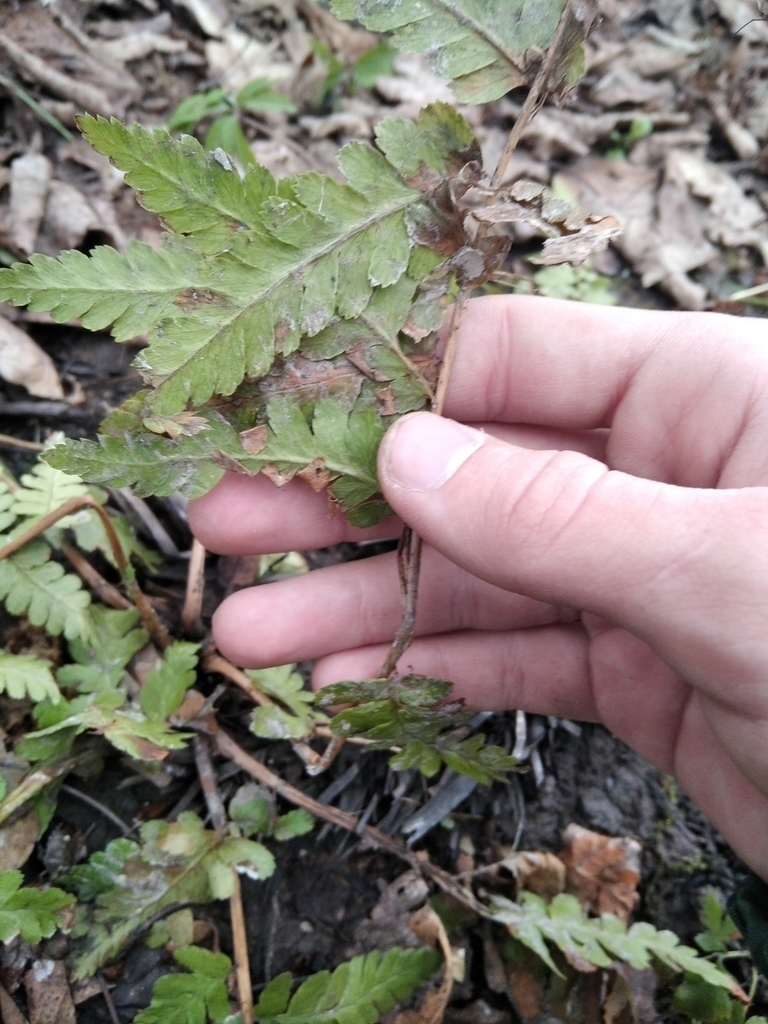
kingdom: Plantae
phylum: Tracheophyta
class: Polypodiopsida
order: Polypodiales
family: Dryopteridaceae
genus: Dryopteris
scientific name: Dryopteris cristata
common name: Crested wood fern
